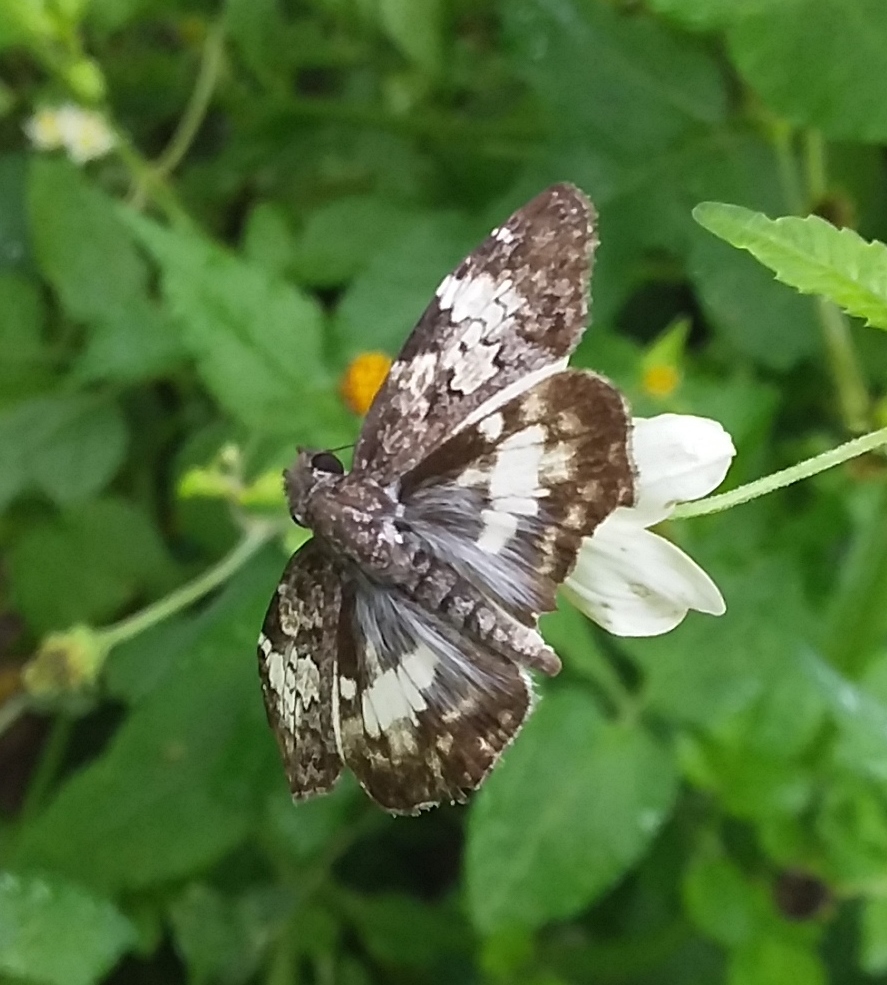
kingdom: Animalia
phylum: Arthropoda
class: Insecta
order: Lepidoptera
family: Hesperiidae
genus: Chiothion
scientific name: Chiothion georgina
